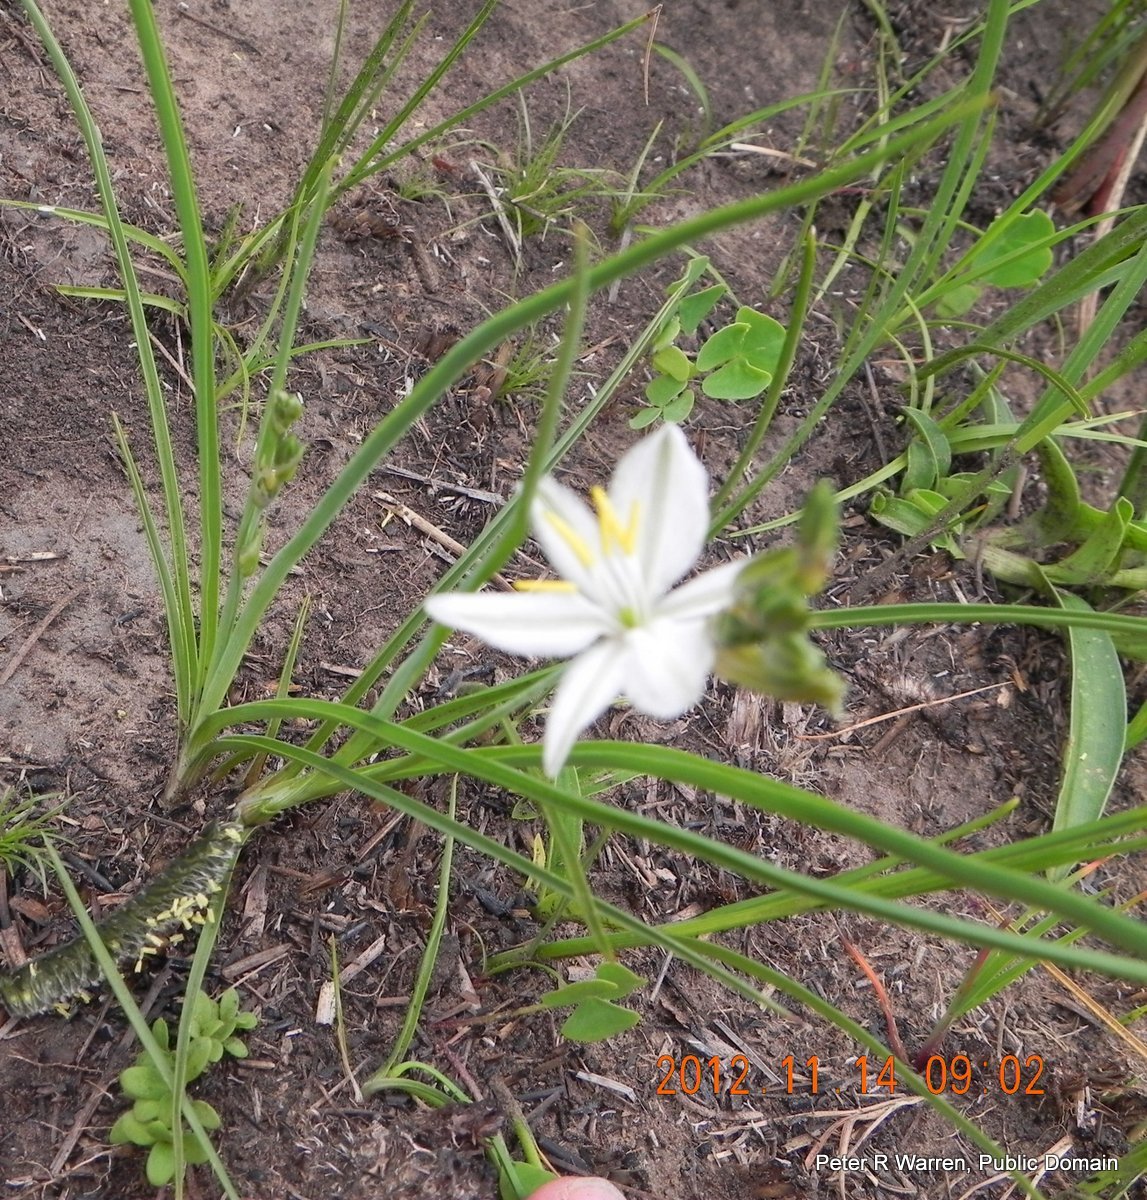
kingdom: Plantae
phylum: Tracheophyta
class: Liliopsida
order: Asparagales
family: Asparagaceae
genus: Chlorophytum
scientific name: Chlorophytum cooperi
